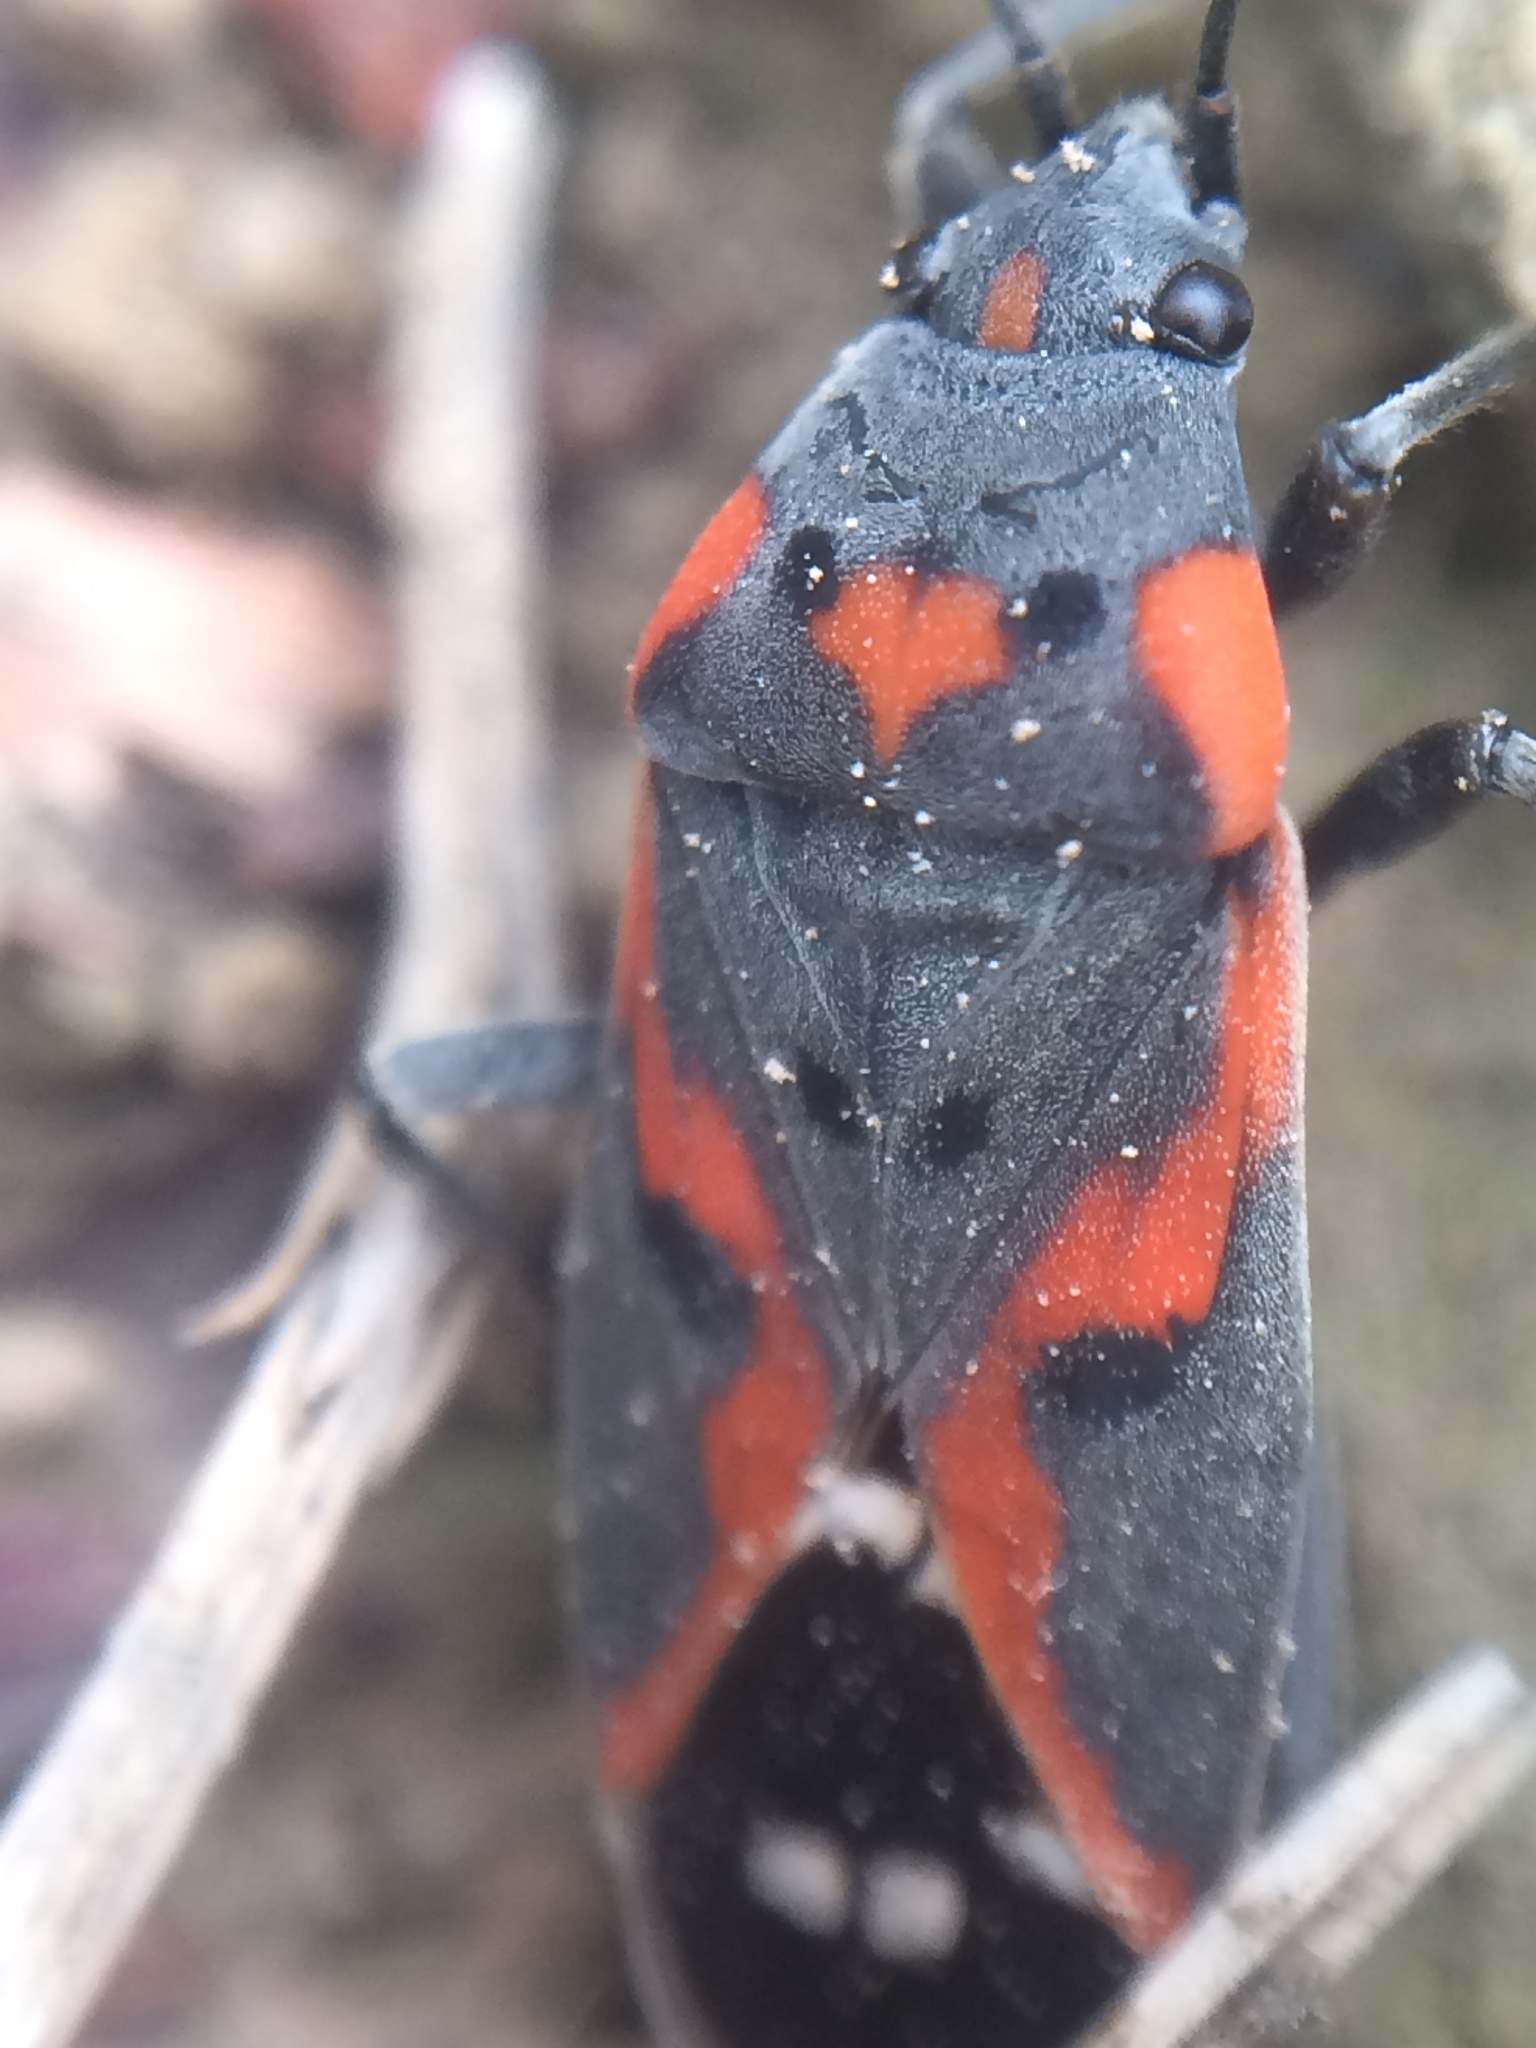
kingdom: Animalia
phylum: Arthropoda
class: Insecta
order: Hemiptera
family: Lygaeidae
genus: Lygaeus
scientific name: Lygaeus kalmii
